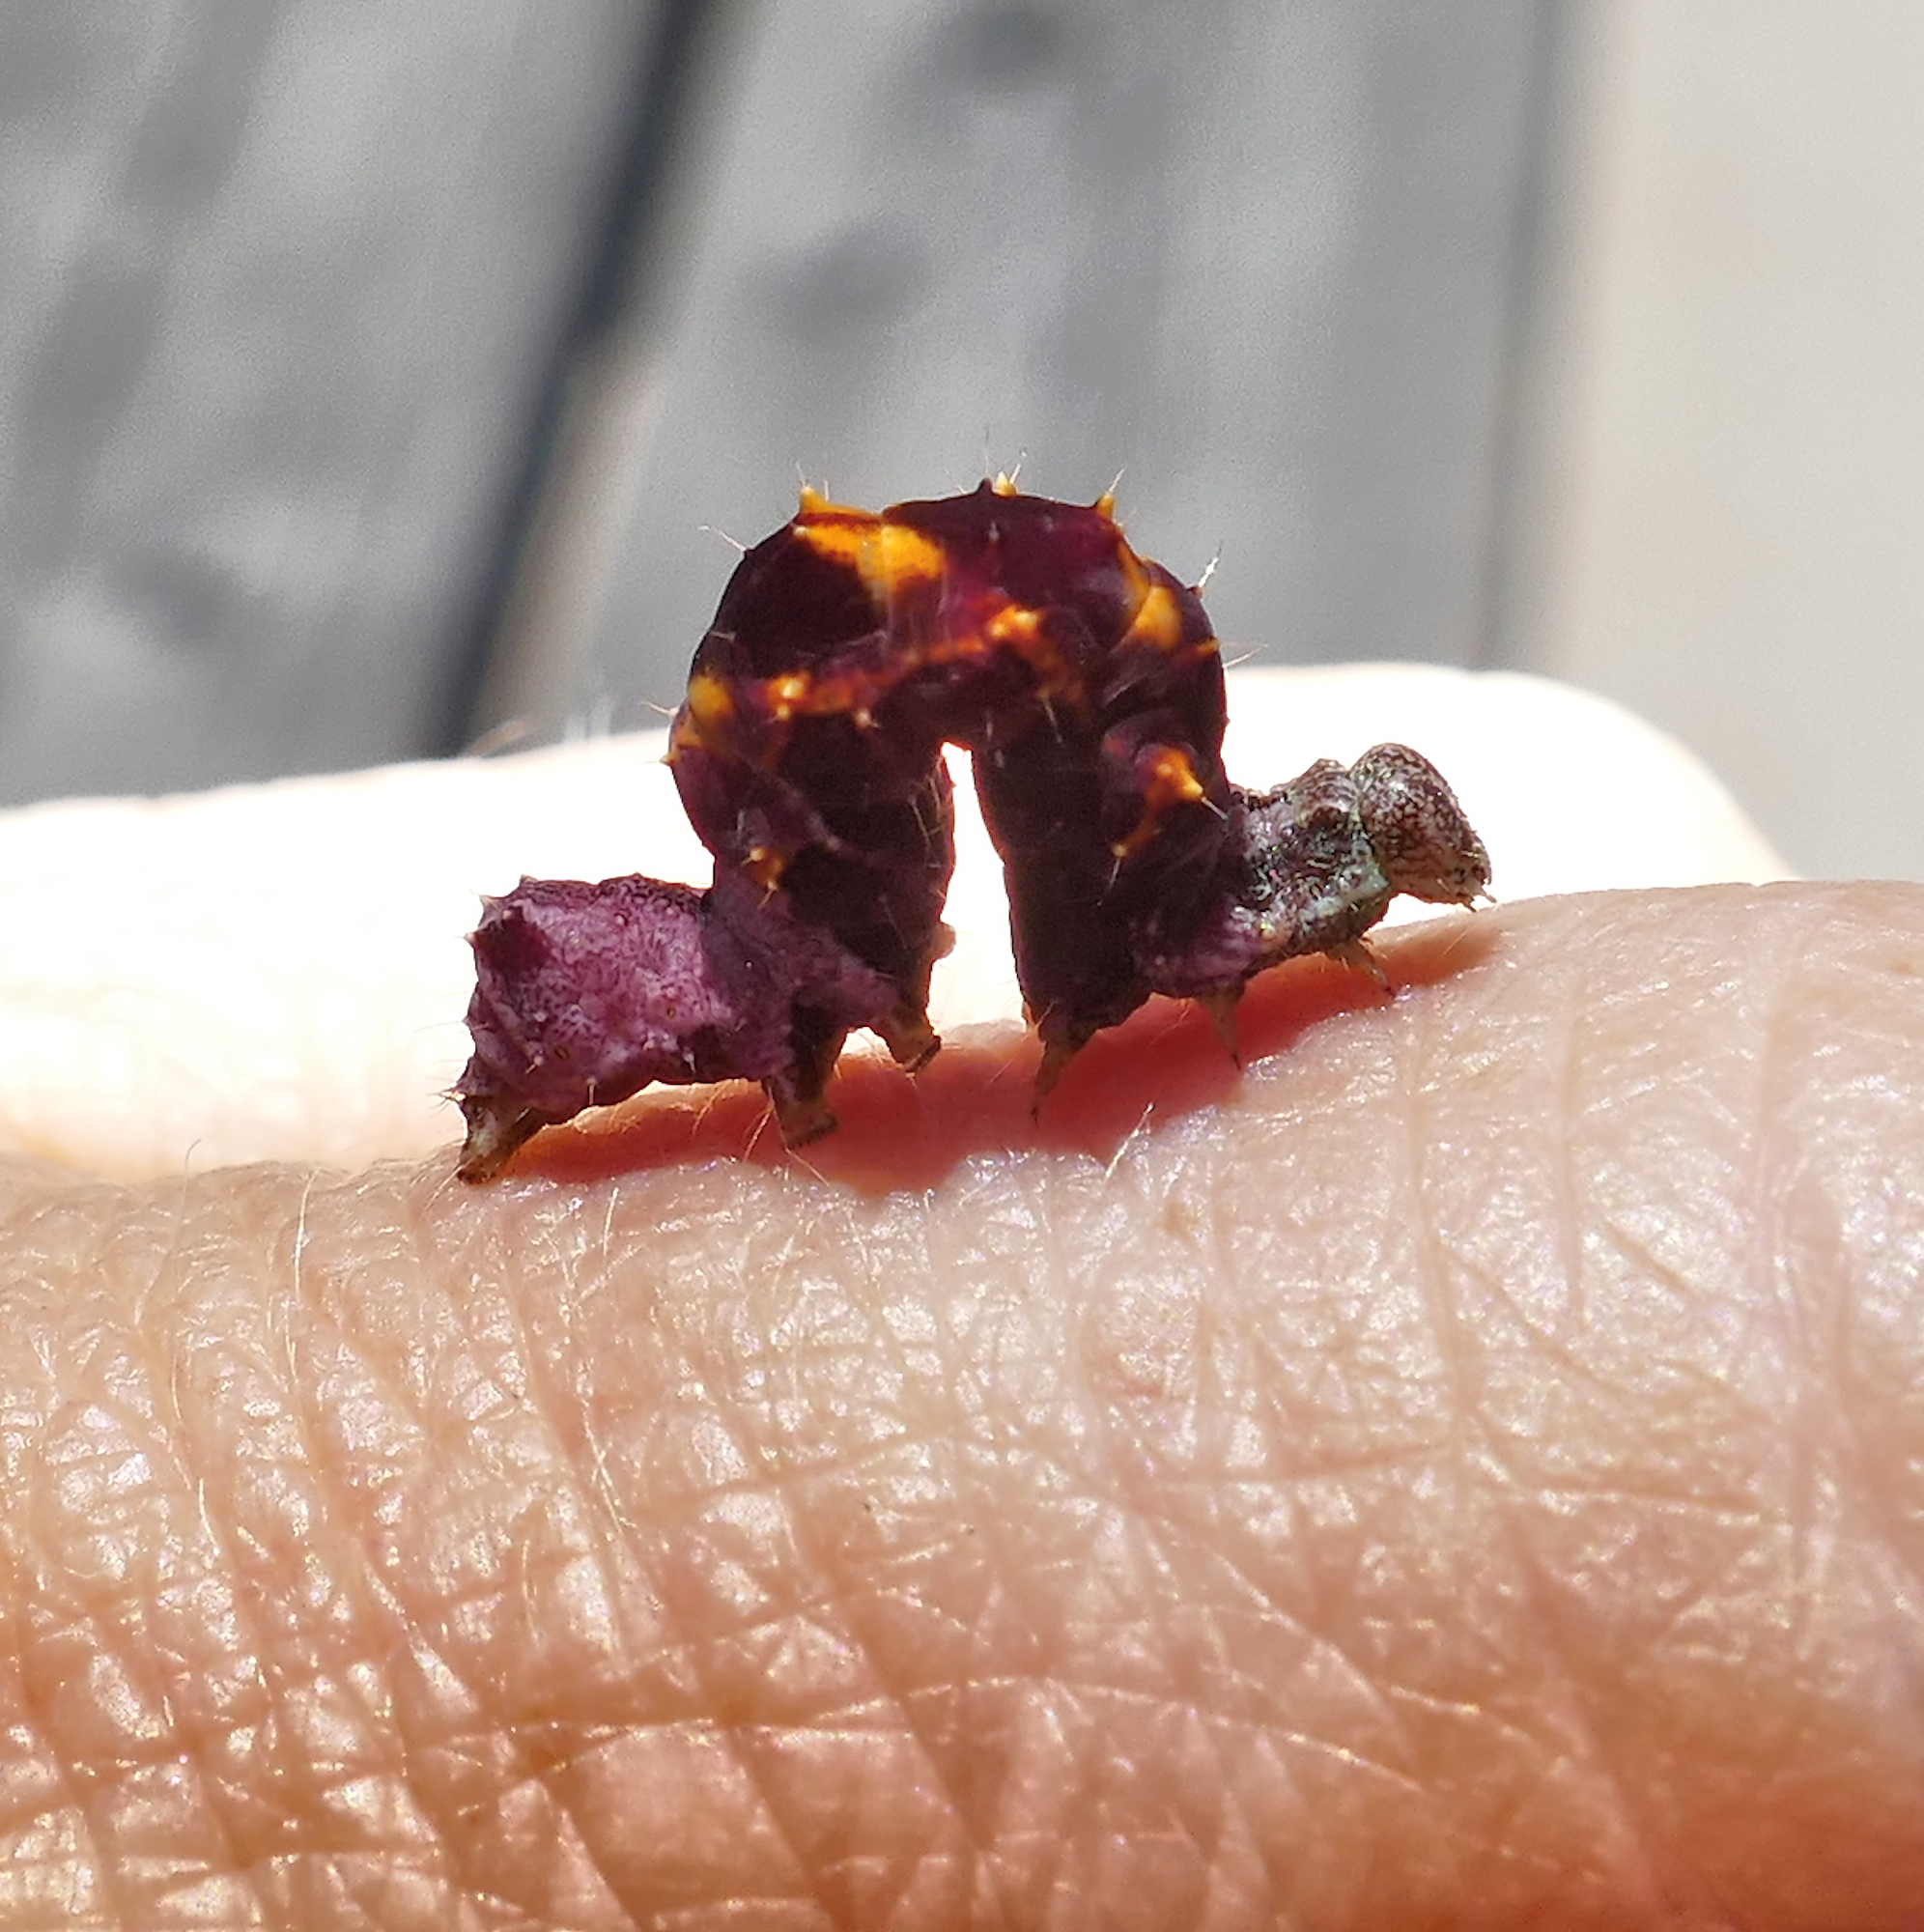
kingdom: Animalia
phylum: Arthropoda
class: Insecta
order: Lepidoptera
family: Noctuidae
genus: Acontia
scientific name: Acontia lucasi
